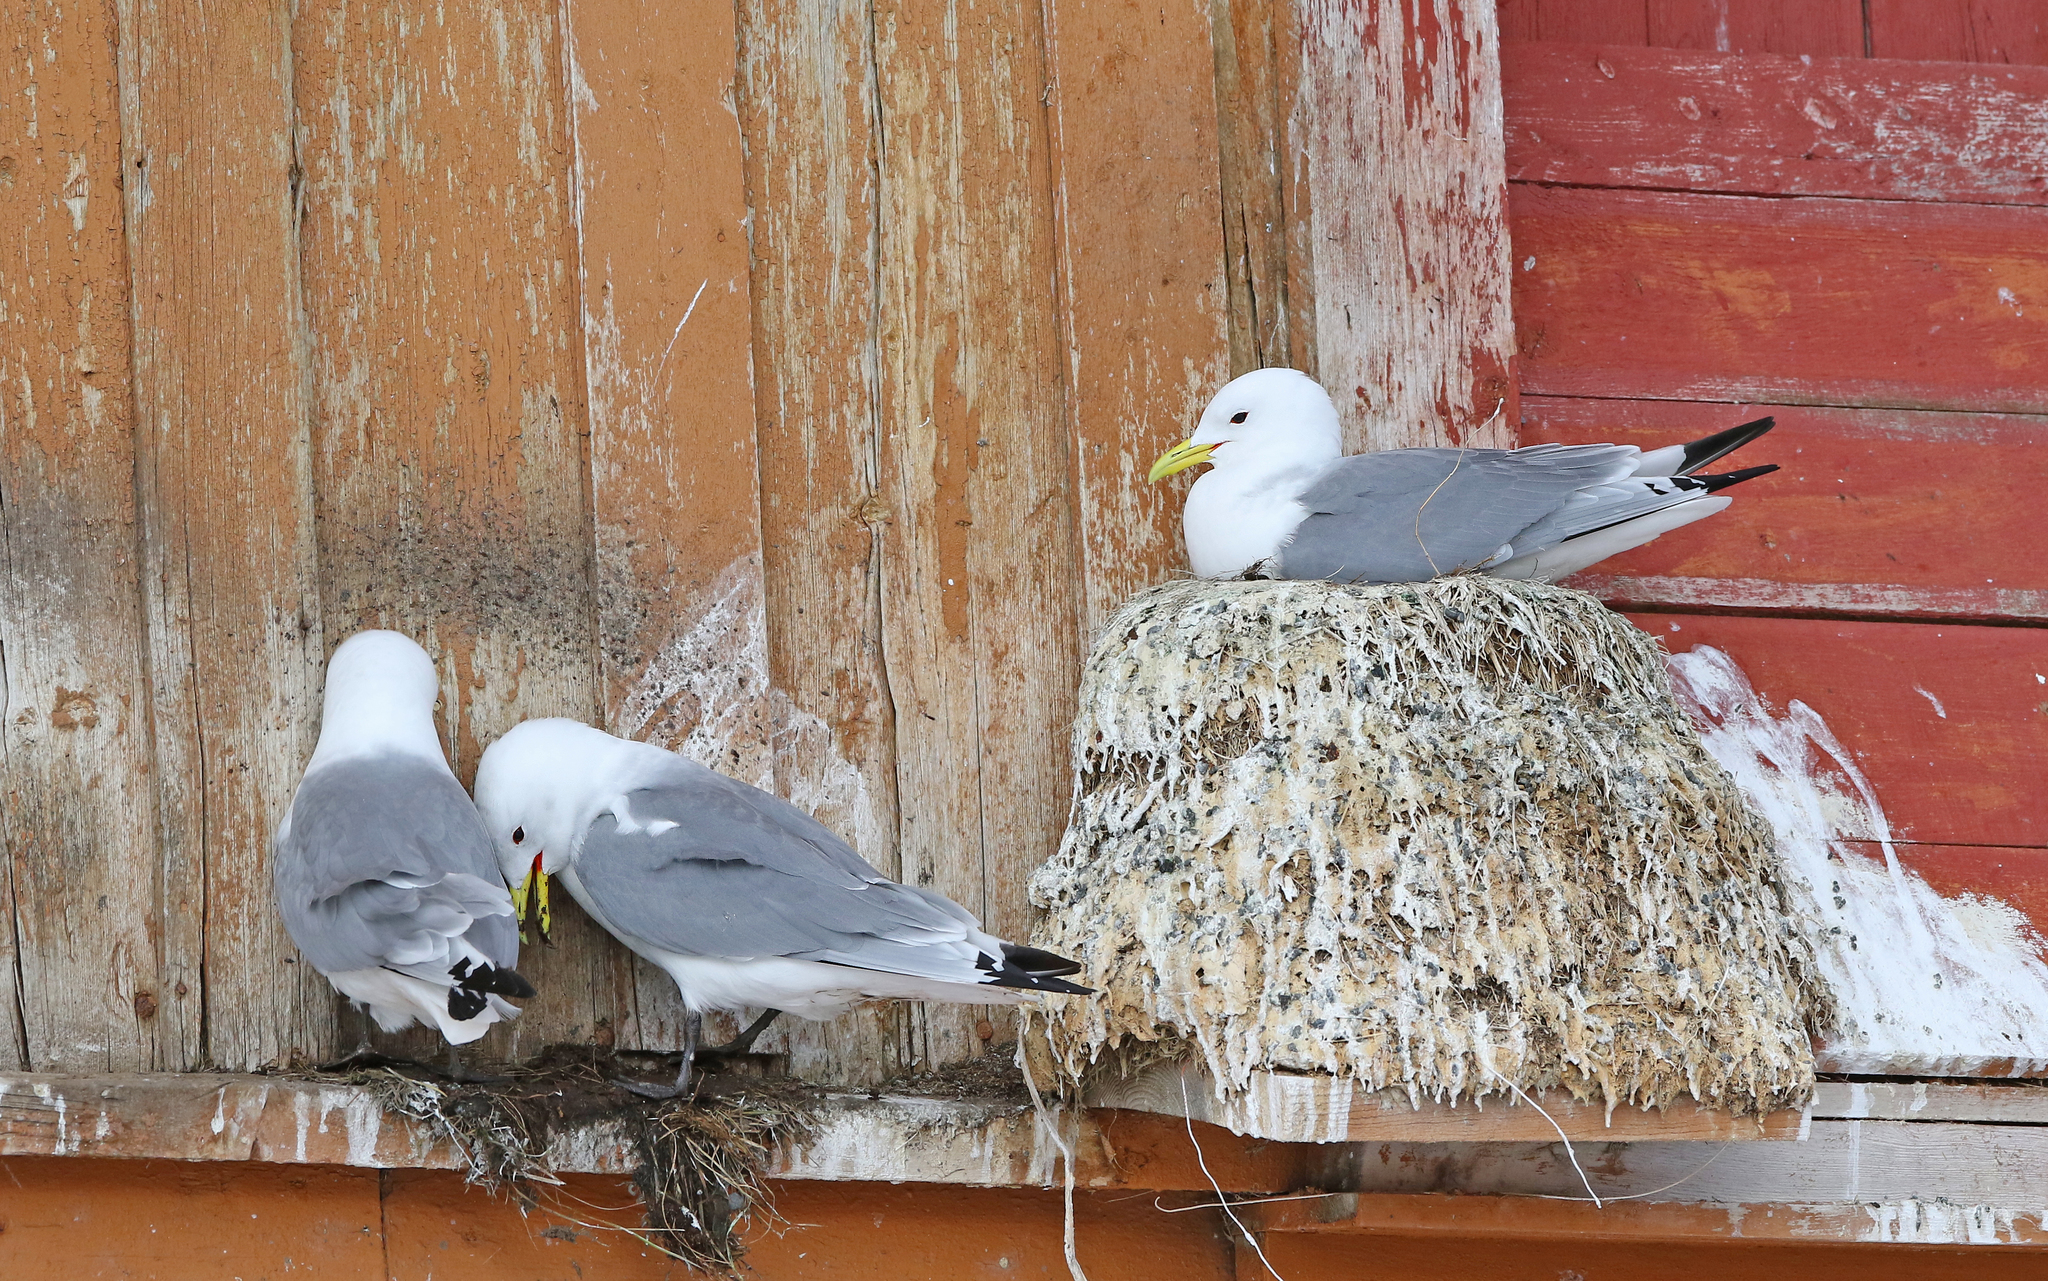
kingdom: Animalia
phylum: Chordata
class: Aves
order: Charadriiformes
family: Laridae
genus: Rissa
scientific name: Rissa tridactyla
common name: Black-legged kittiwake
